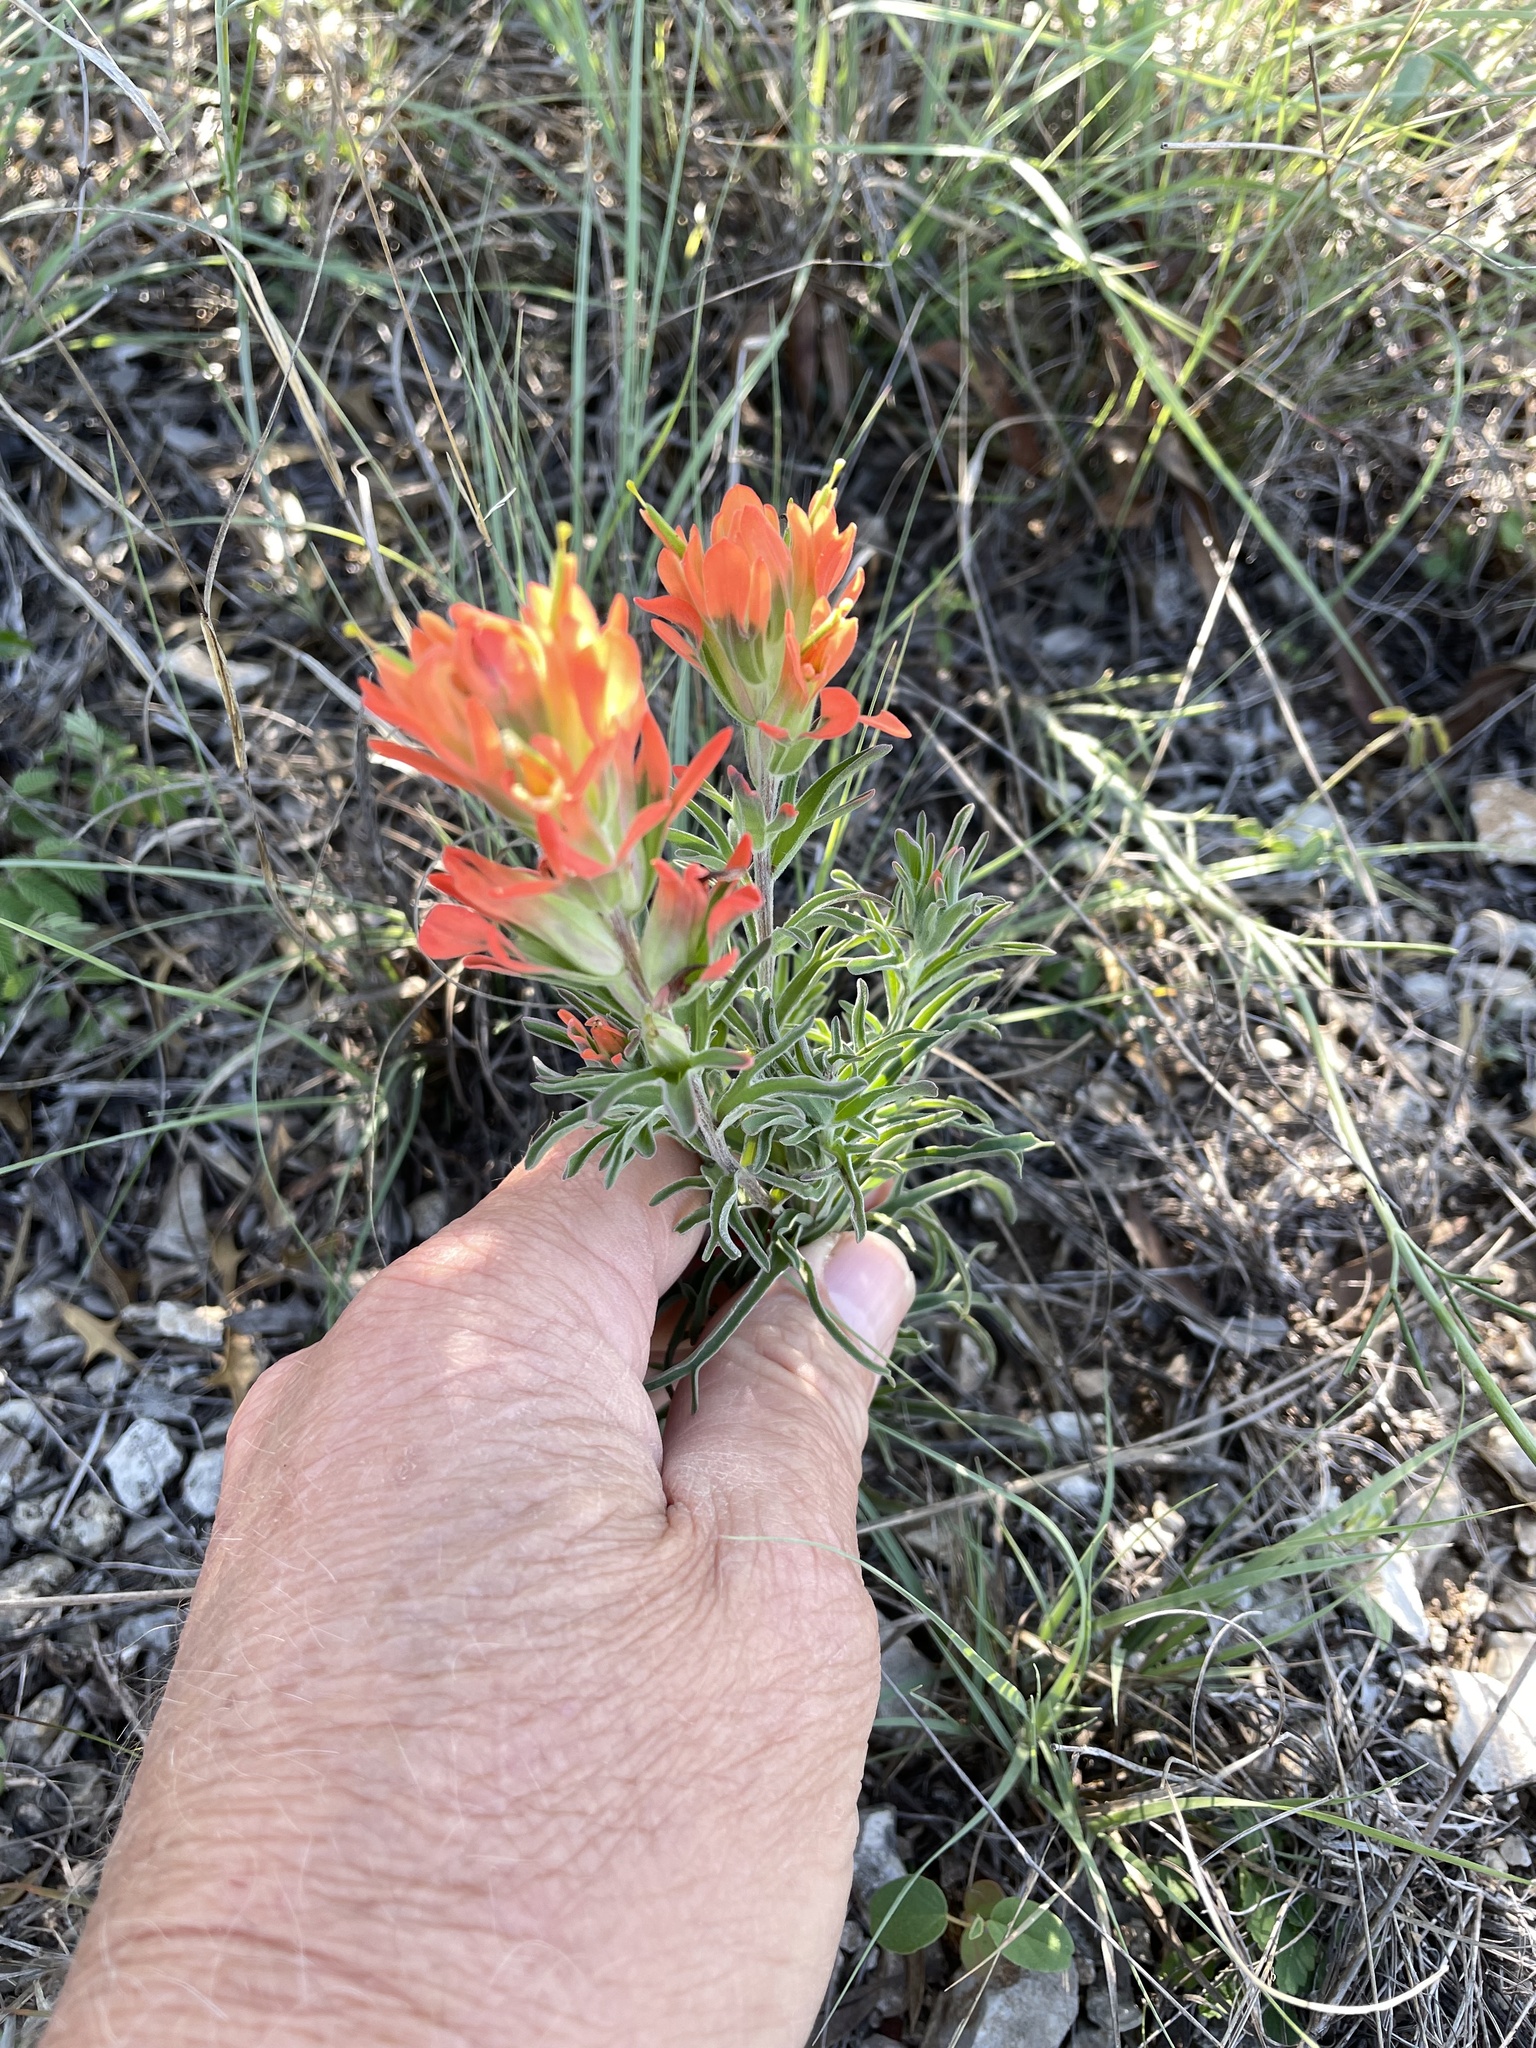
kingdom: Plantae
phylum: Tracheophyta
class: Magnoliopsida
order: Lamiales
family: Orobanchaceae
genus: Castilleja
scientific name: Castilleja lindheimeri
